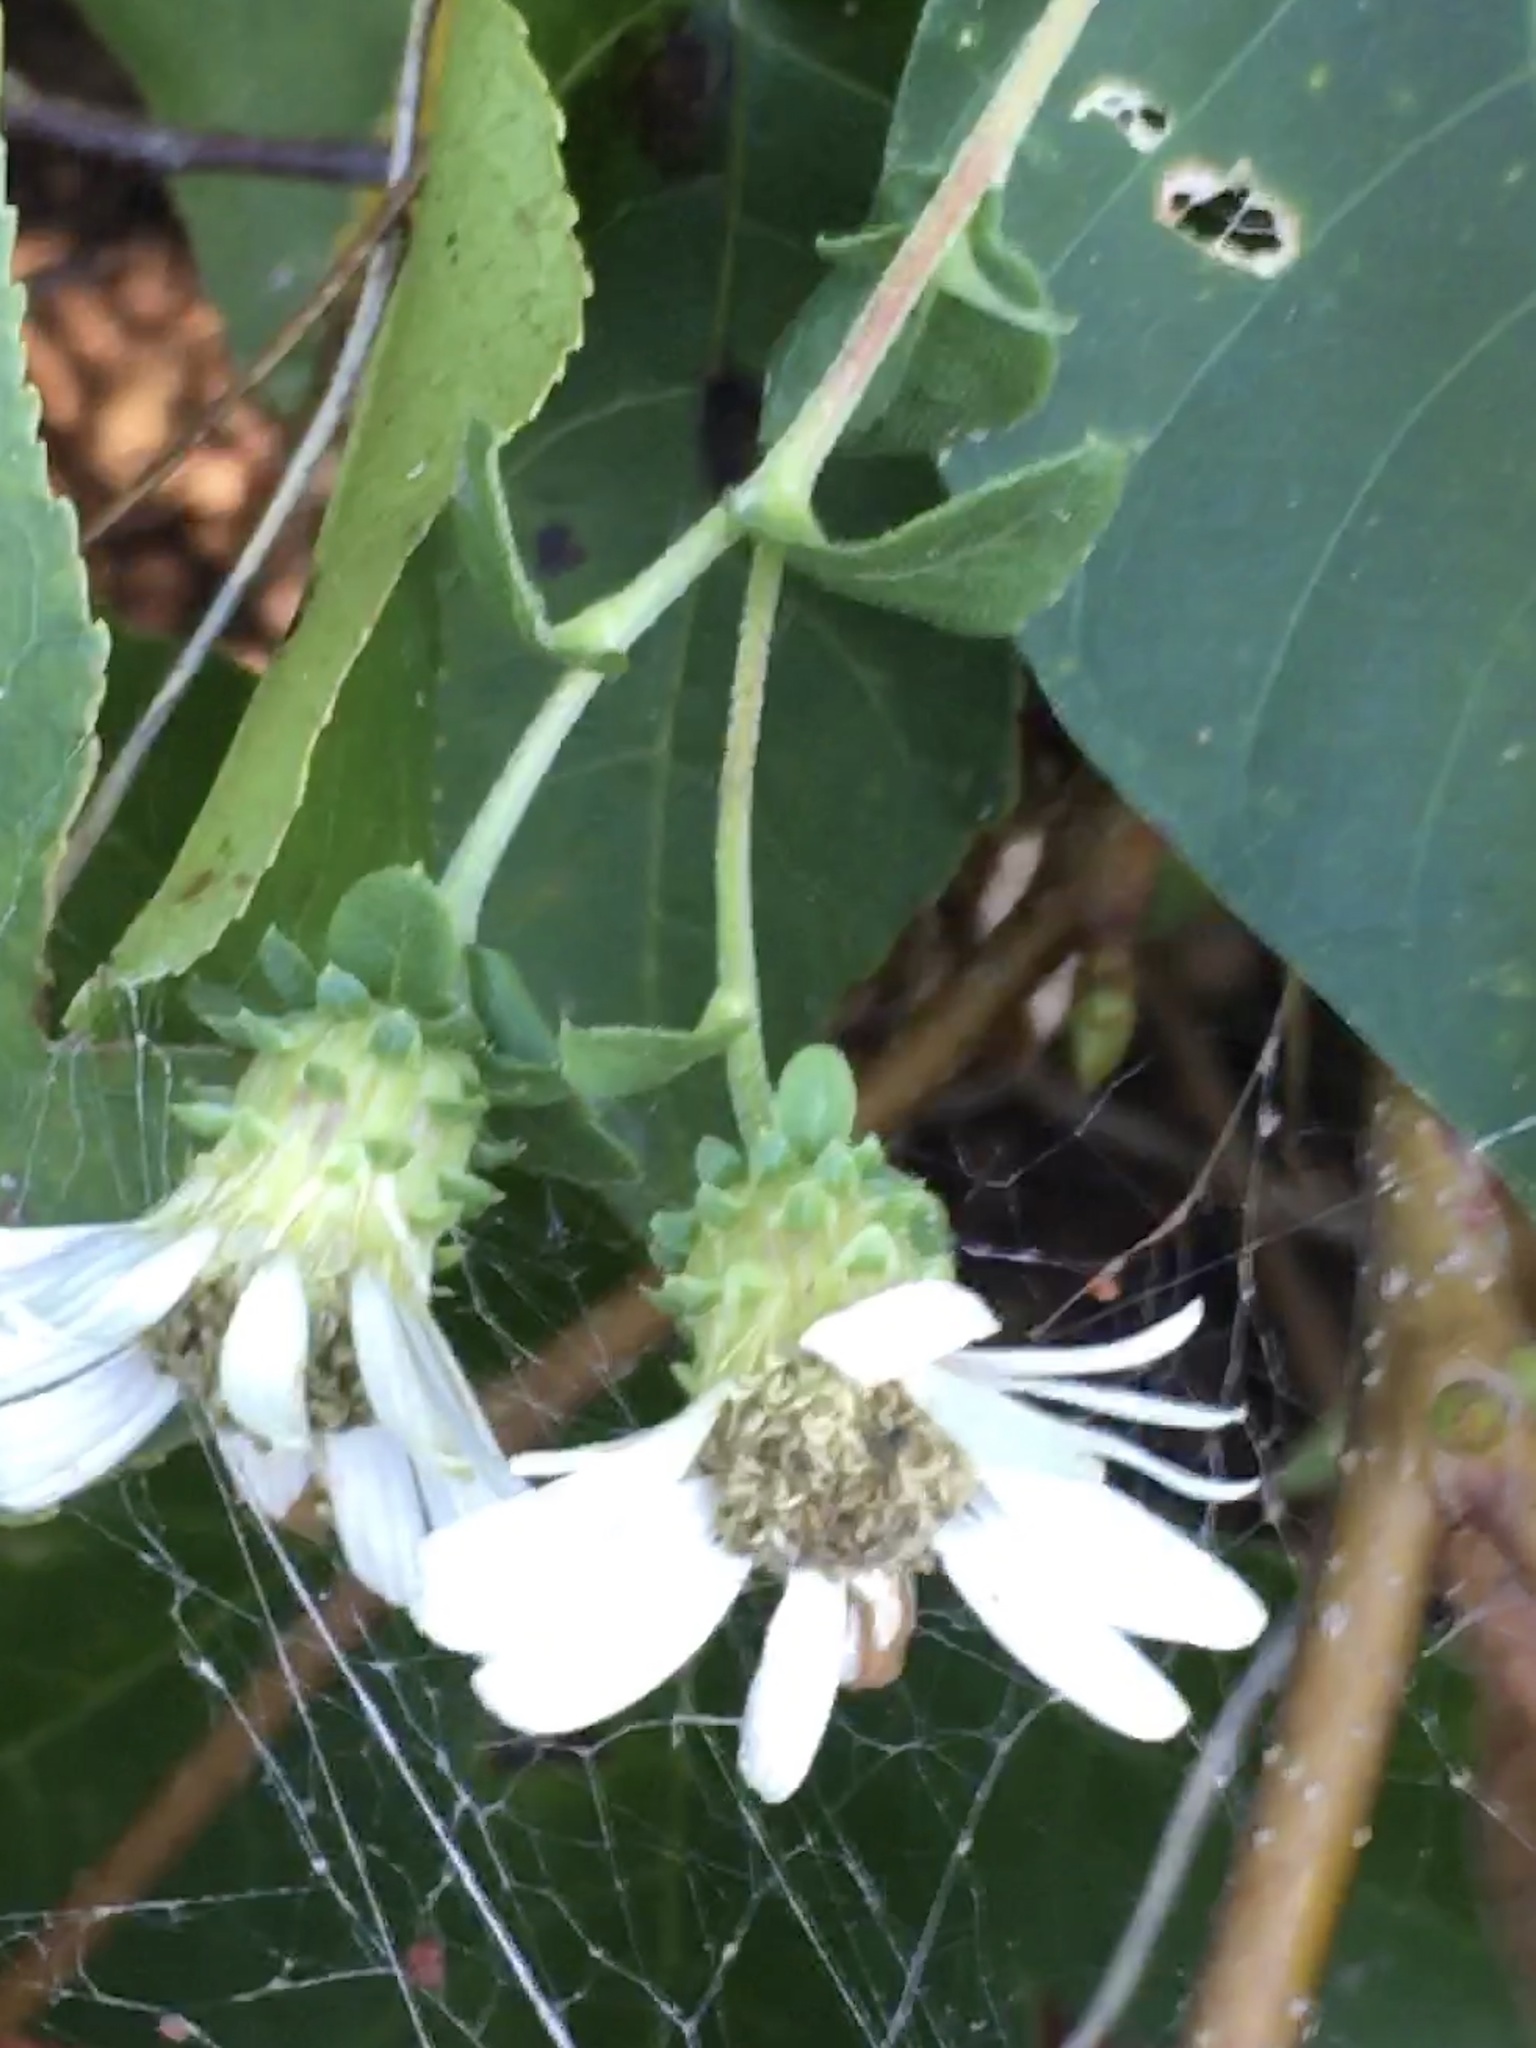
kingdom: Plantae
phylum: Tracheophyta
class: Magnoliopsida
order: Asterales
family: Asteraceae
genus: Eurybia
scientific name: Eurybia mirabilis
